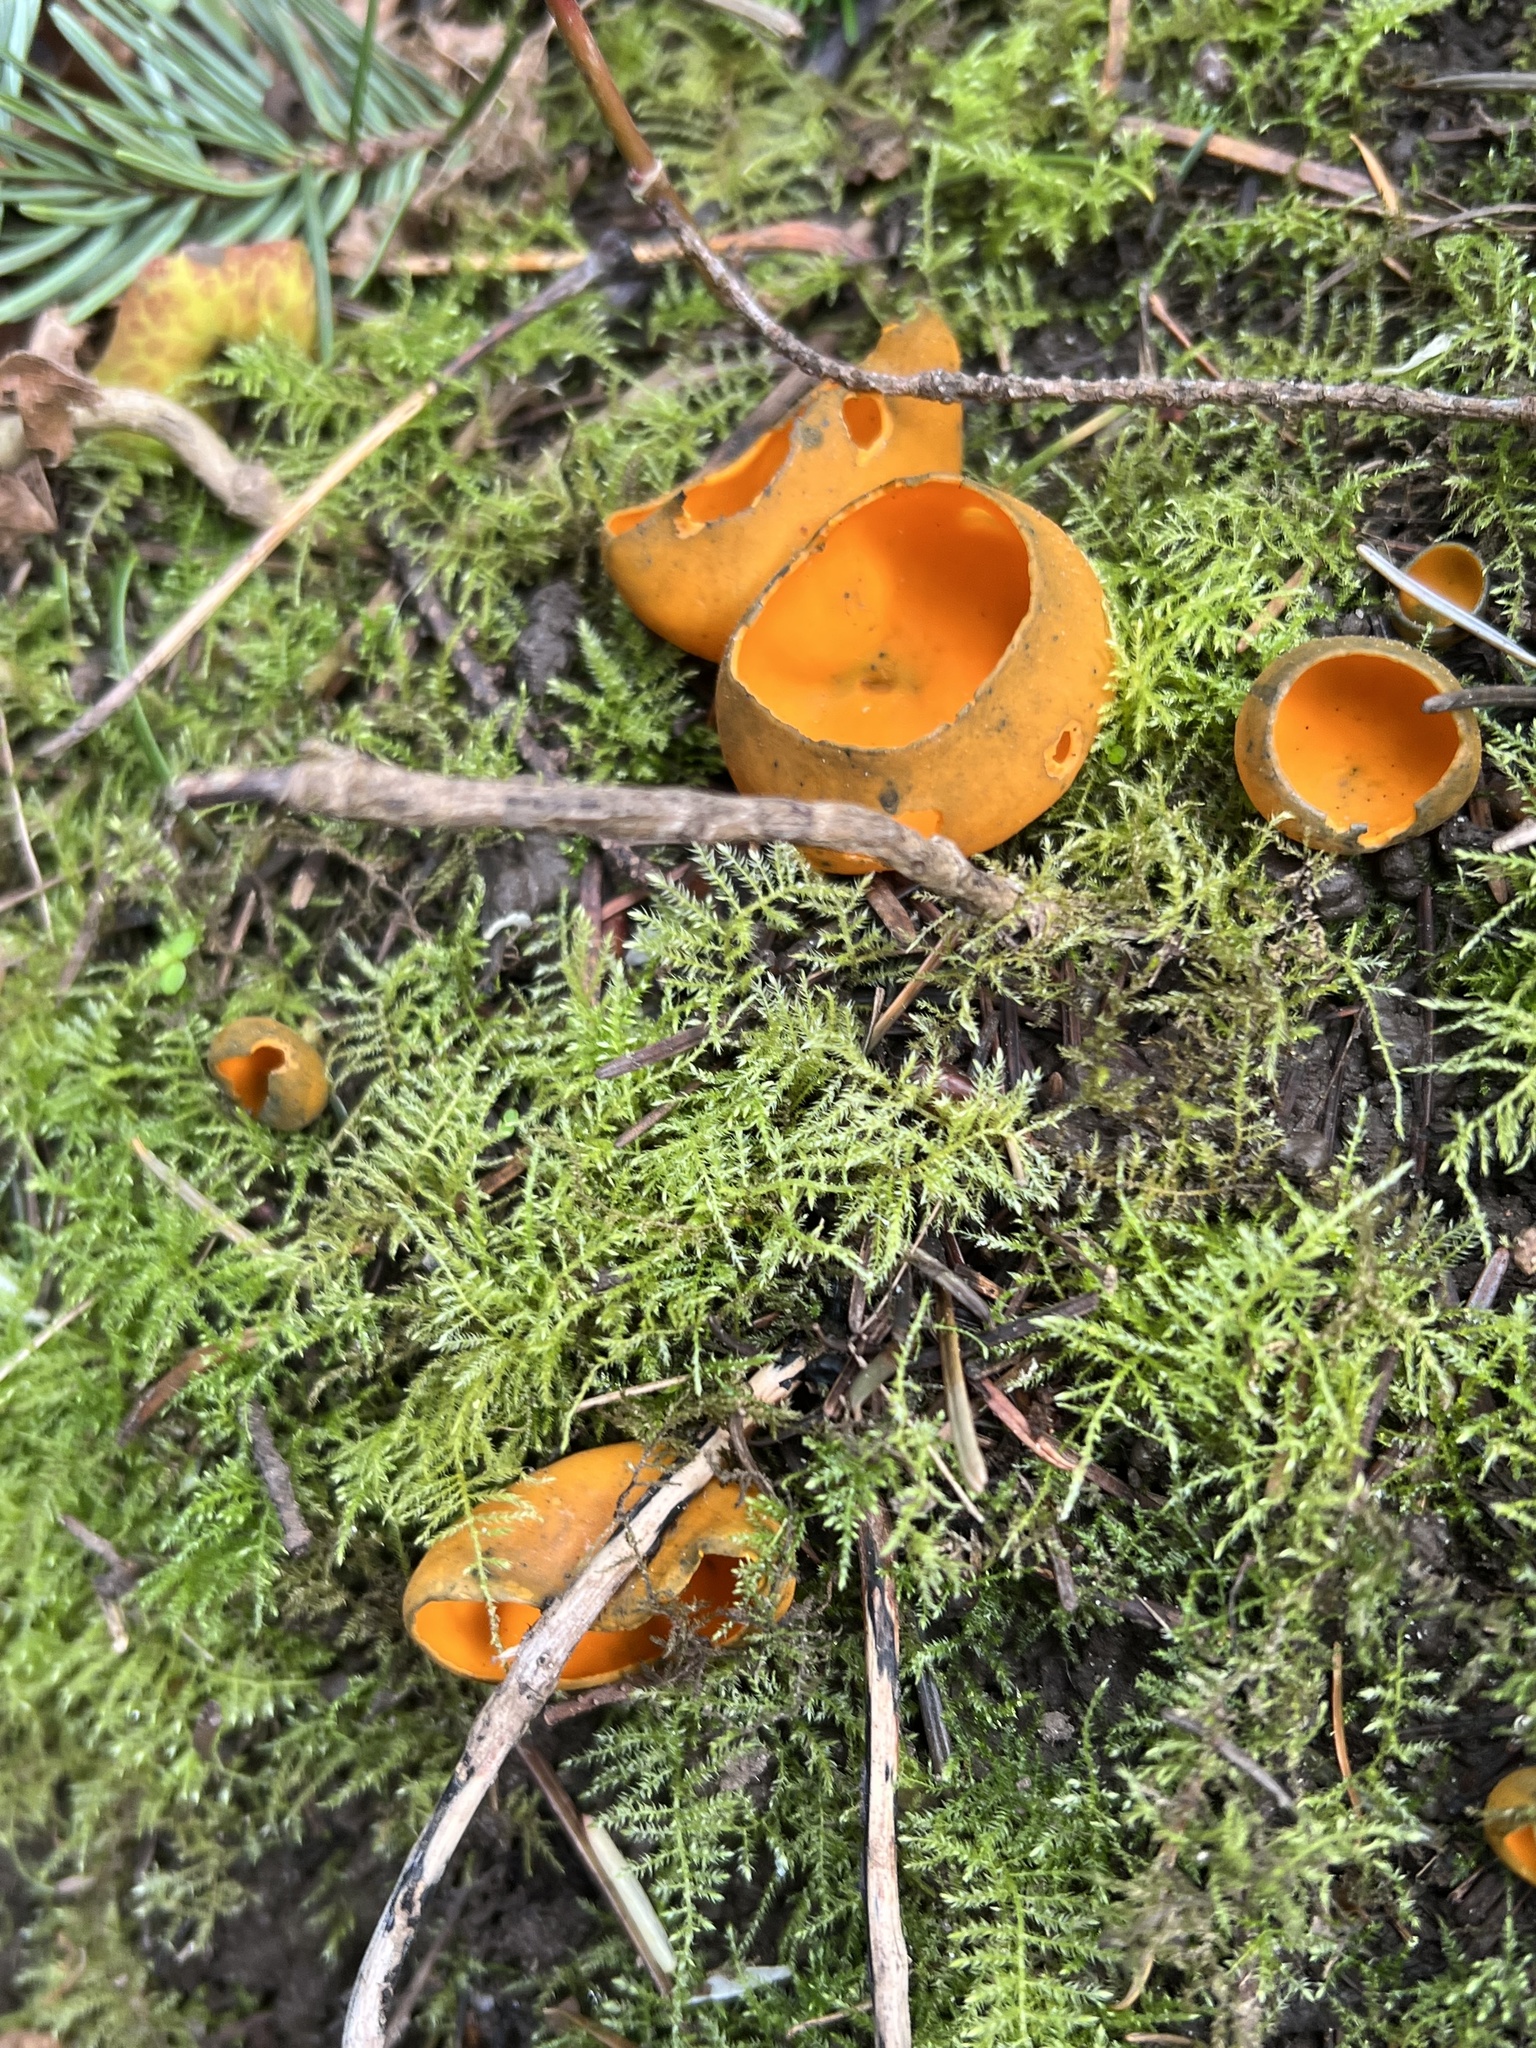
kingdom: Fungi
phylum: Ascomycota
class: Pezizomycetes
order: Pezizales
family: Caloscyphaceae
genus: Caloscypha
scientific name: Caloscypha fulgens
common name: Golden cup
